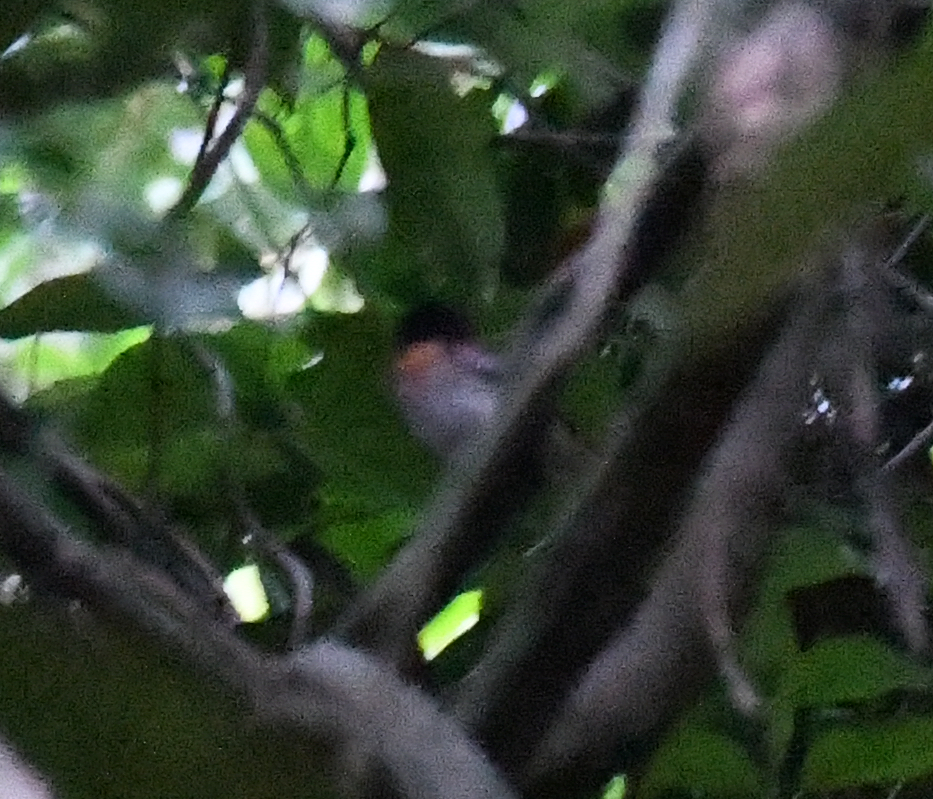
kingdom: Animalia
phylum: Chordata
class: Aves
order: Passeriformes
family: Eurylaimidae
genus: Smithornis
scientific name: Smithornis rufolateralis
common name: Rufous-sided broadbill
